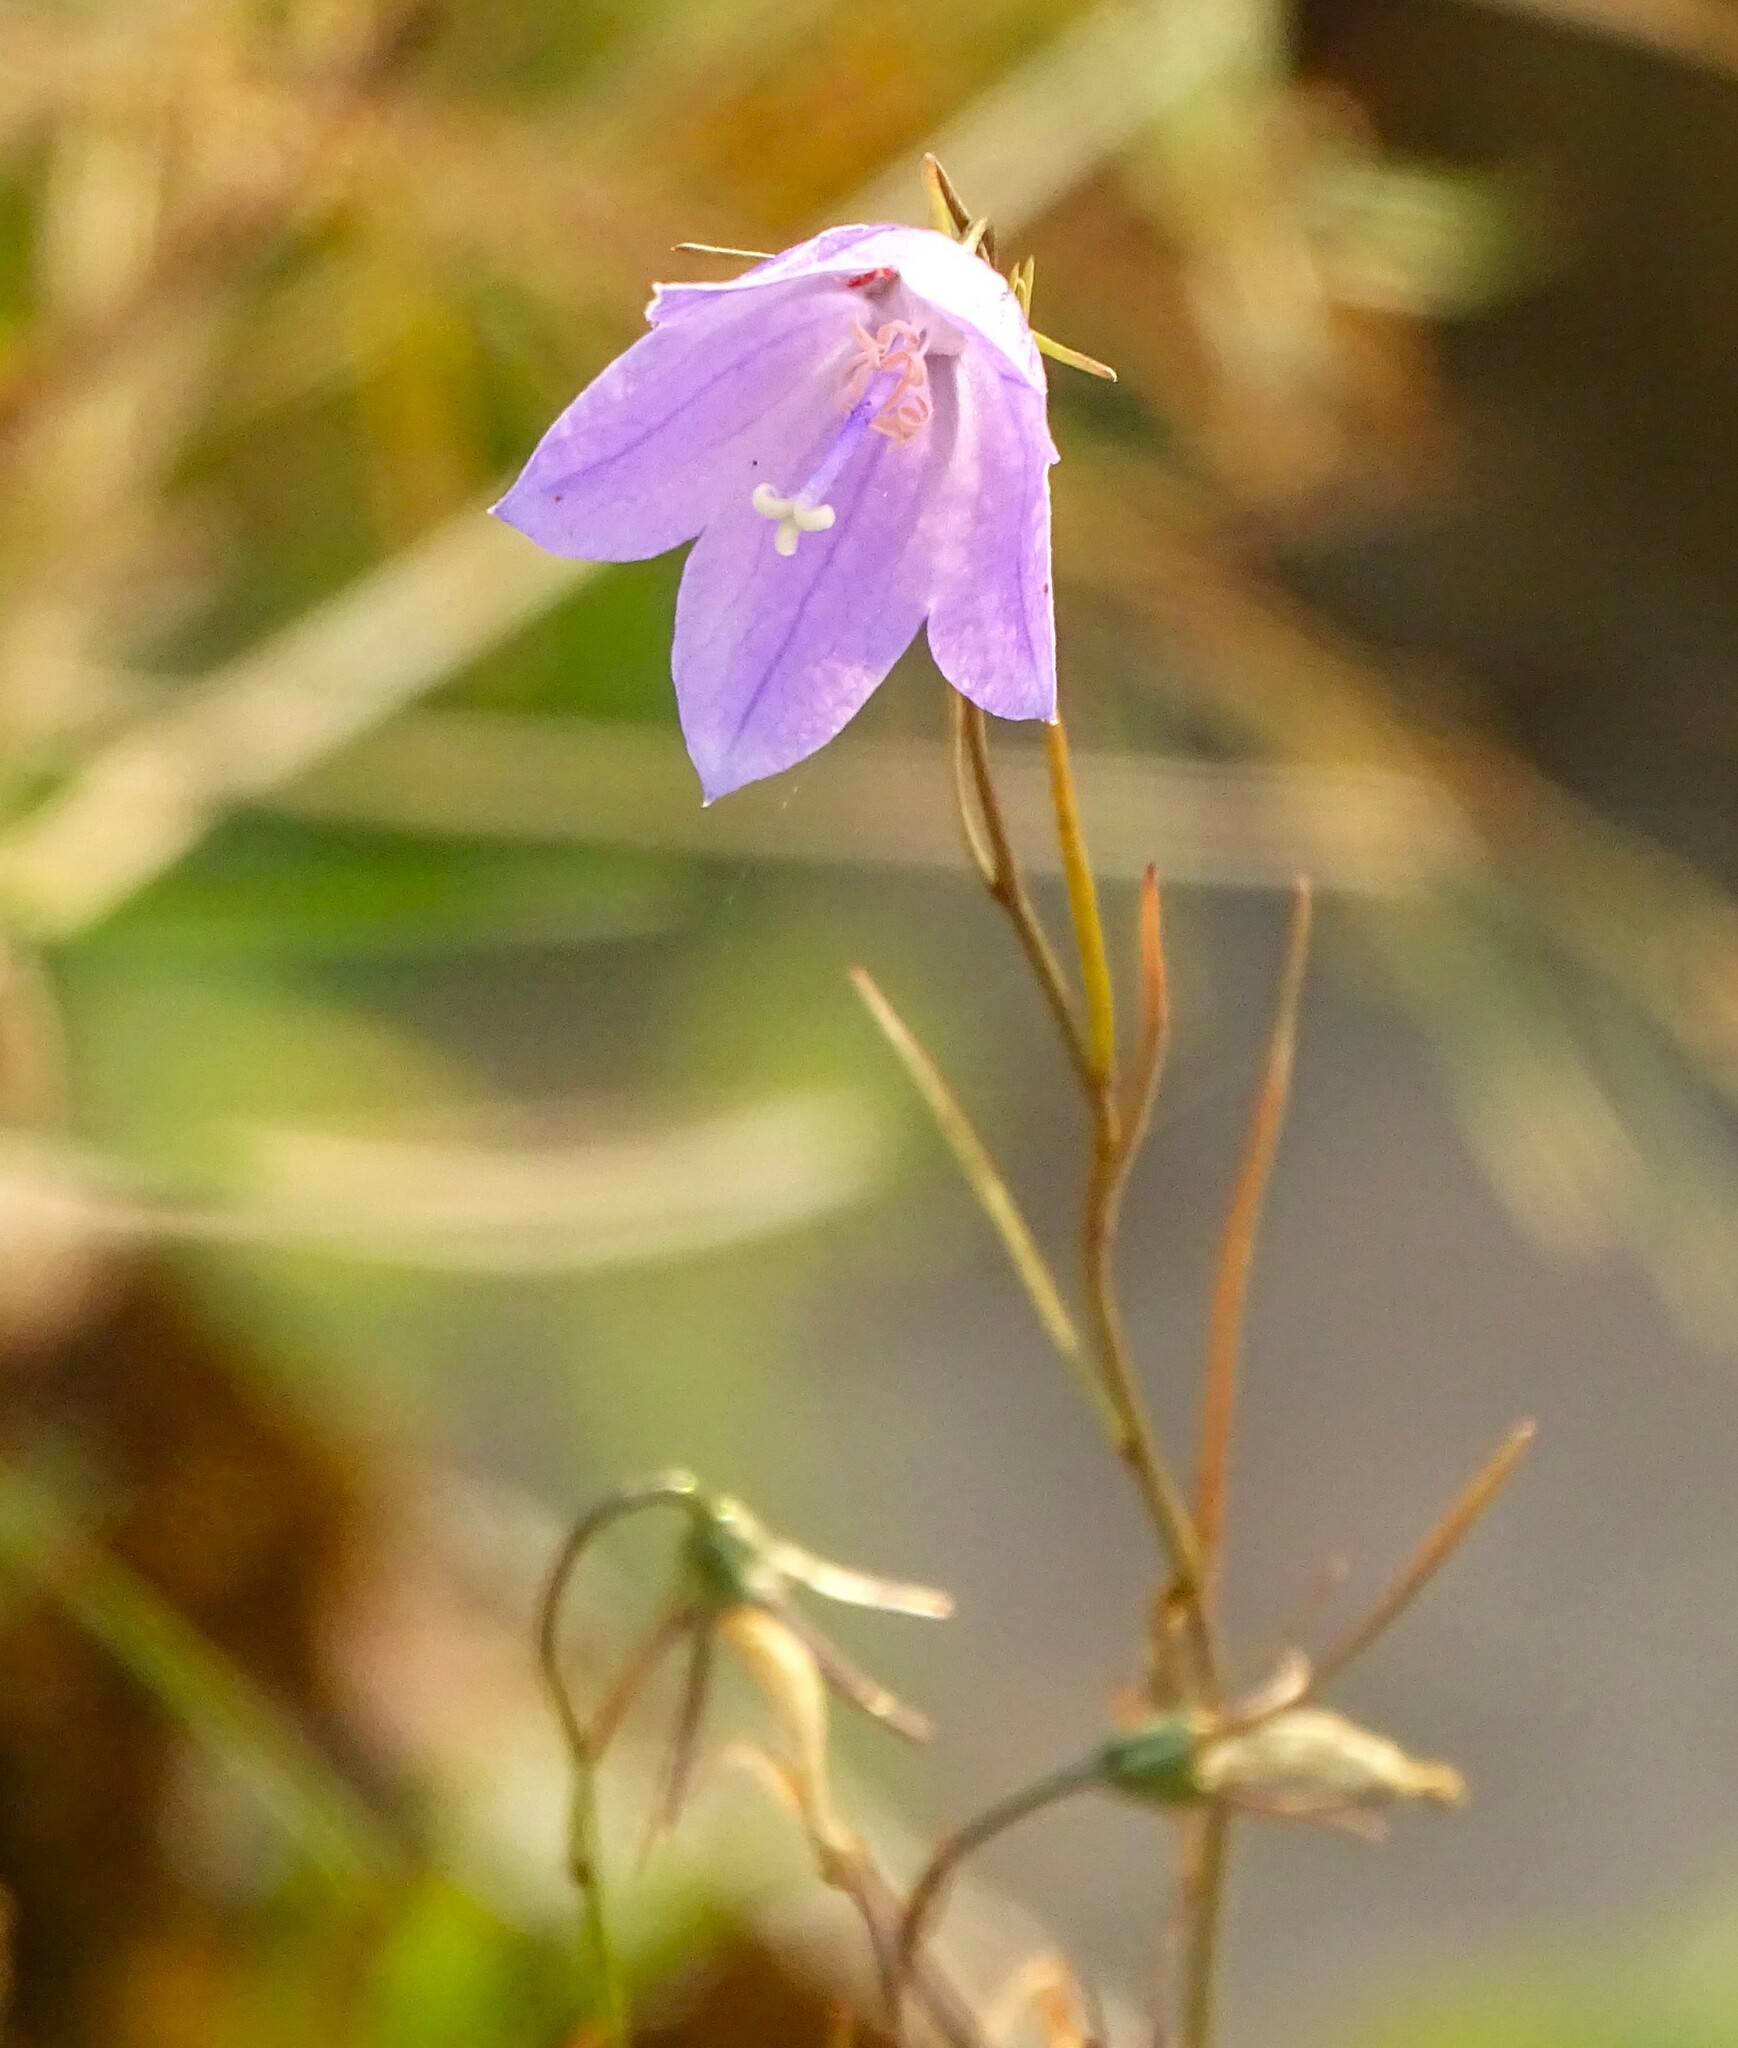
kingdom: Plantae
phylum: Tracheophyta
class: Magnoliopsida
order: Asterales
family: Campanulaceae
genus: Campanula
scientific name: Campanula intercedens
